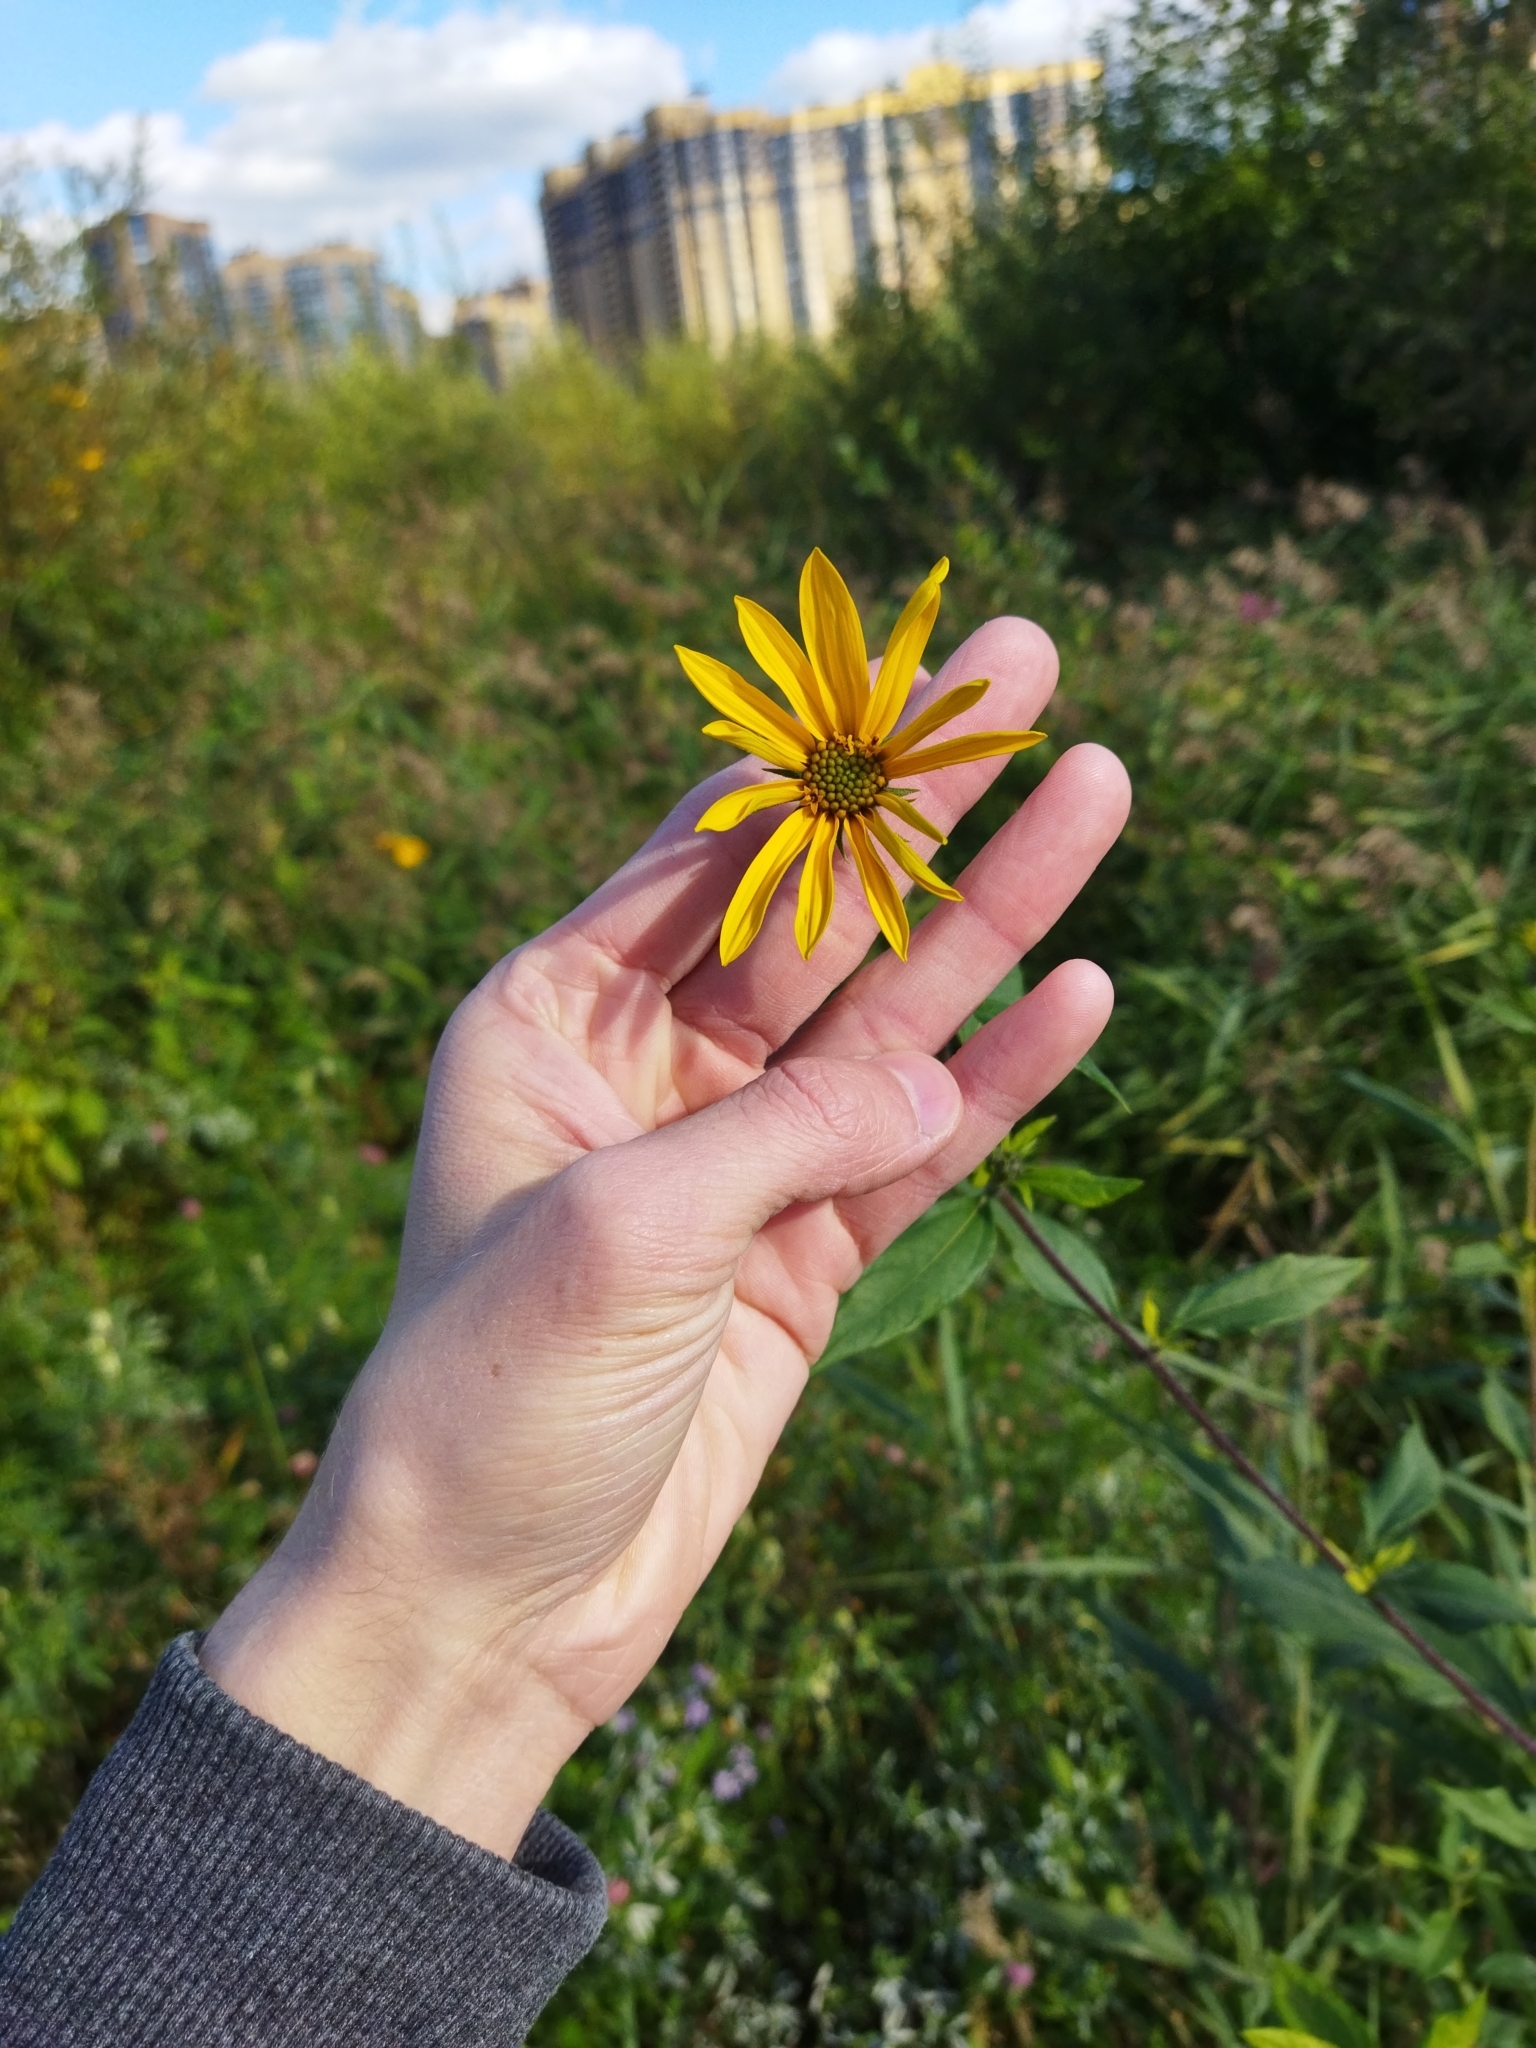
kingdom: Plantae
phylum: Tracheophyta
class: Magnoliopsida
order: Asterales
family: Asteraceae
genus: Helianthus
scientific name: Helianthus tuberosus
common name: Jerusalem artichoke
